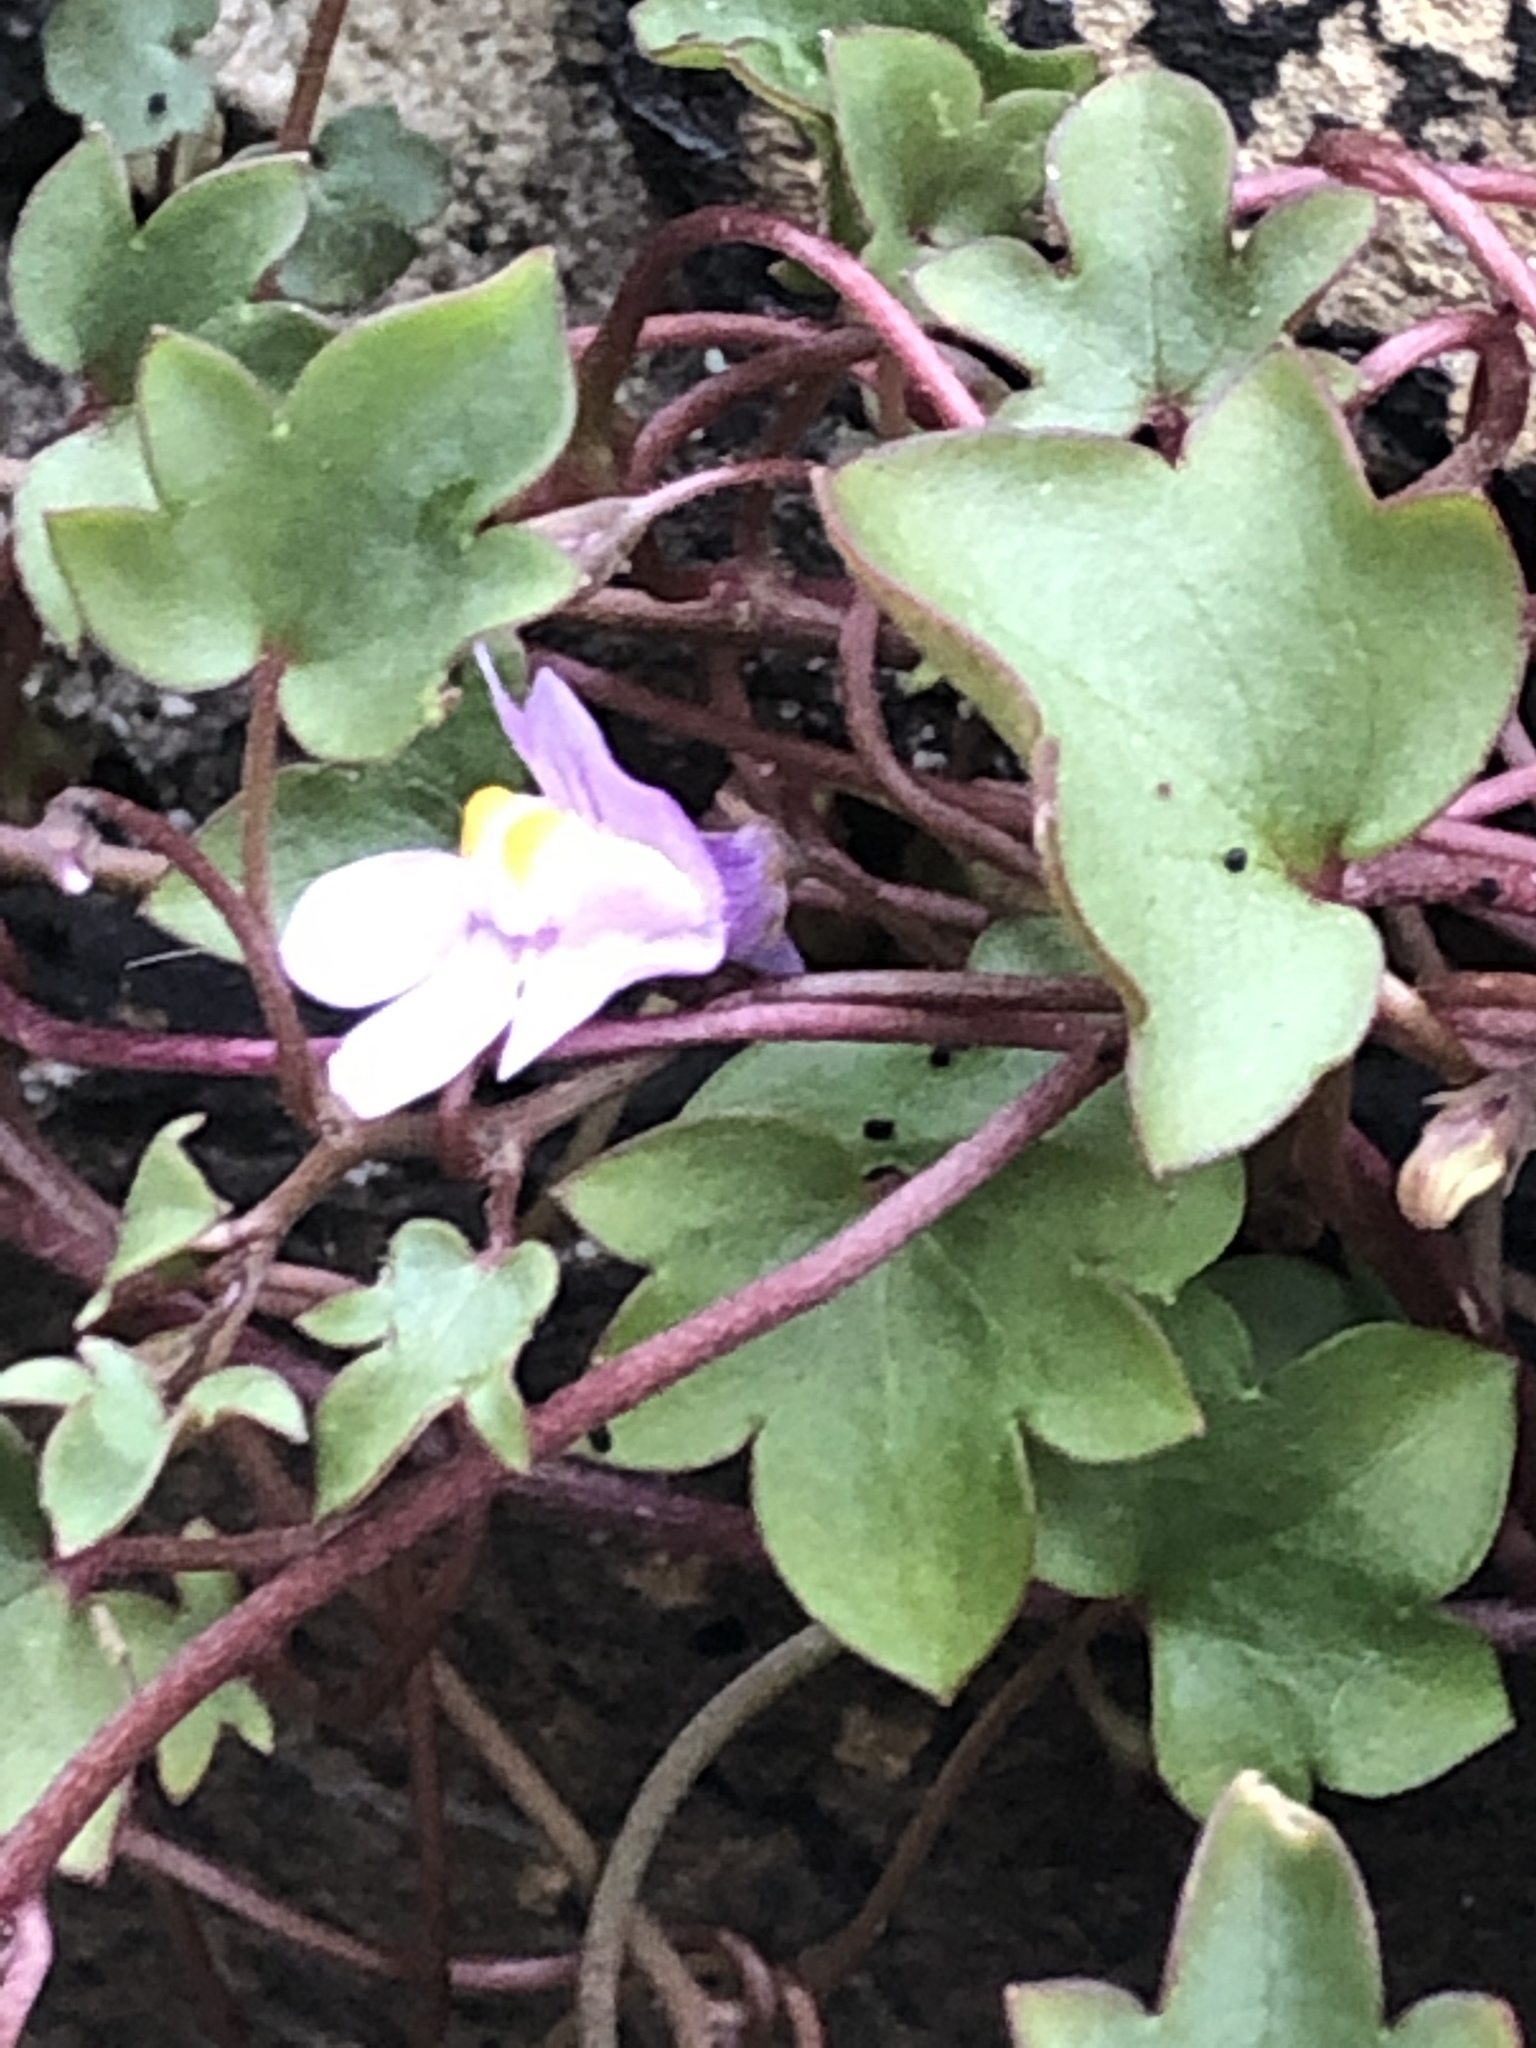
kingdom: Plantae
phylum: Tracheophyta
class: Magnoliopsida
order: Lamiales
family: Plantaginaceae
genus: Cymbalaria
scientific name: Cymbalaria muralis
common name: Ivy-leaved toadflax
